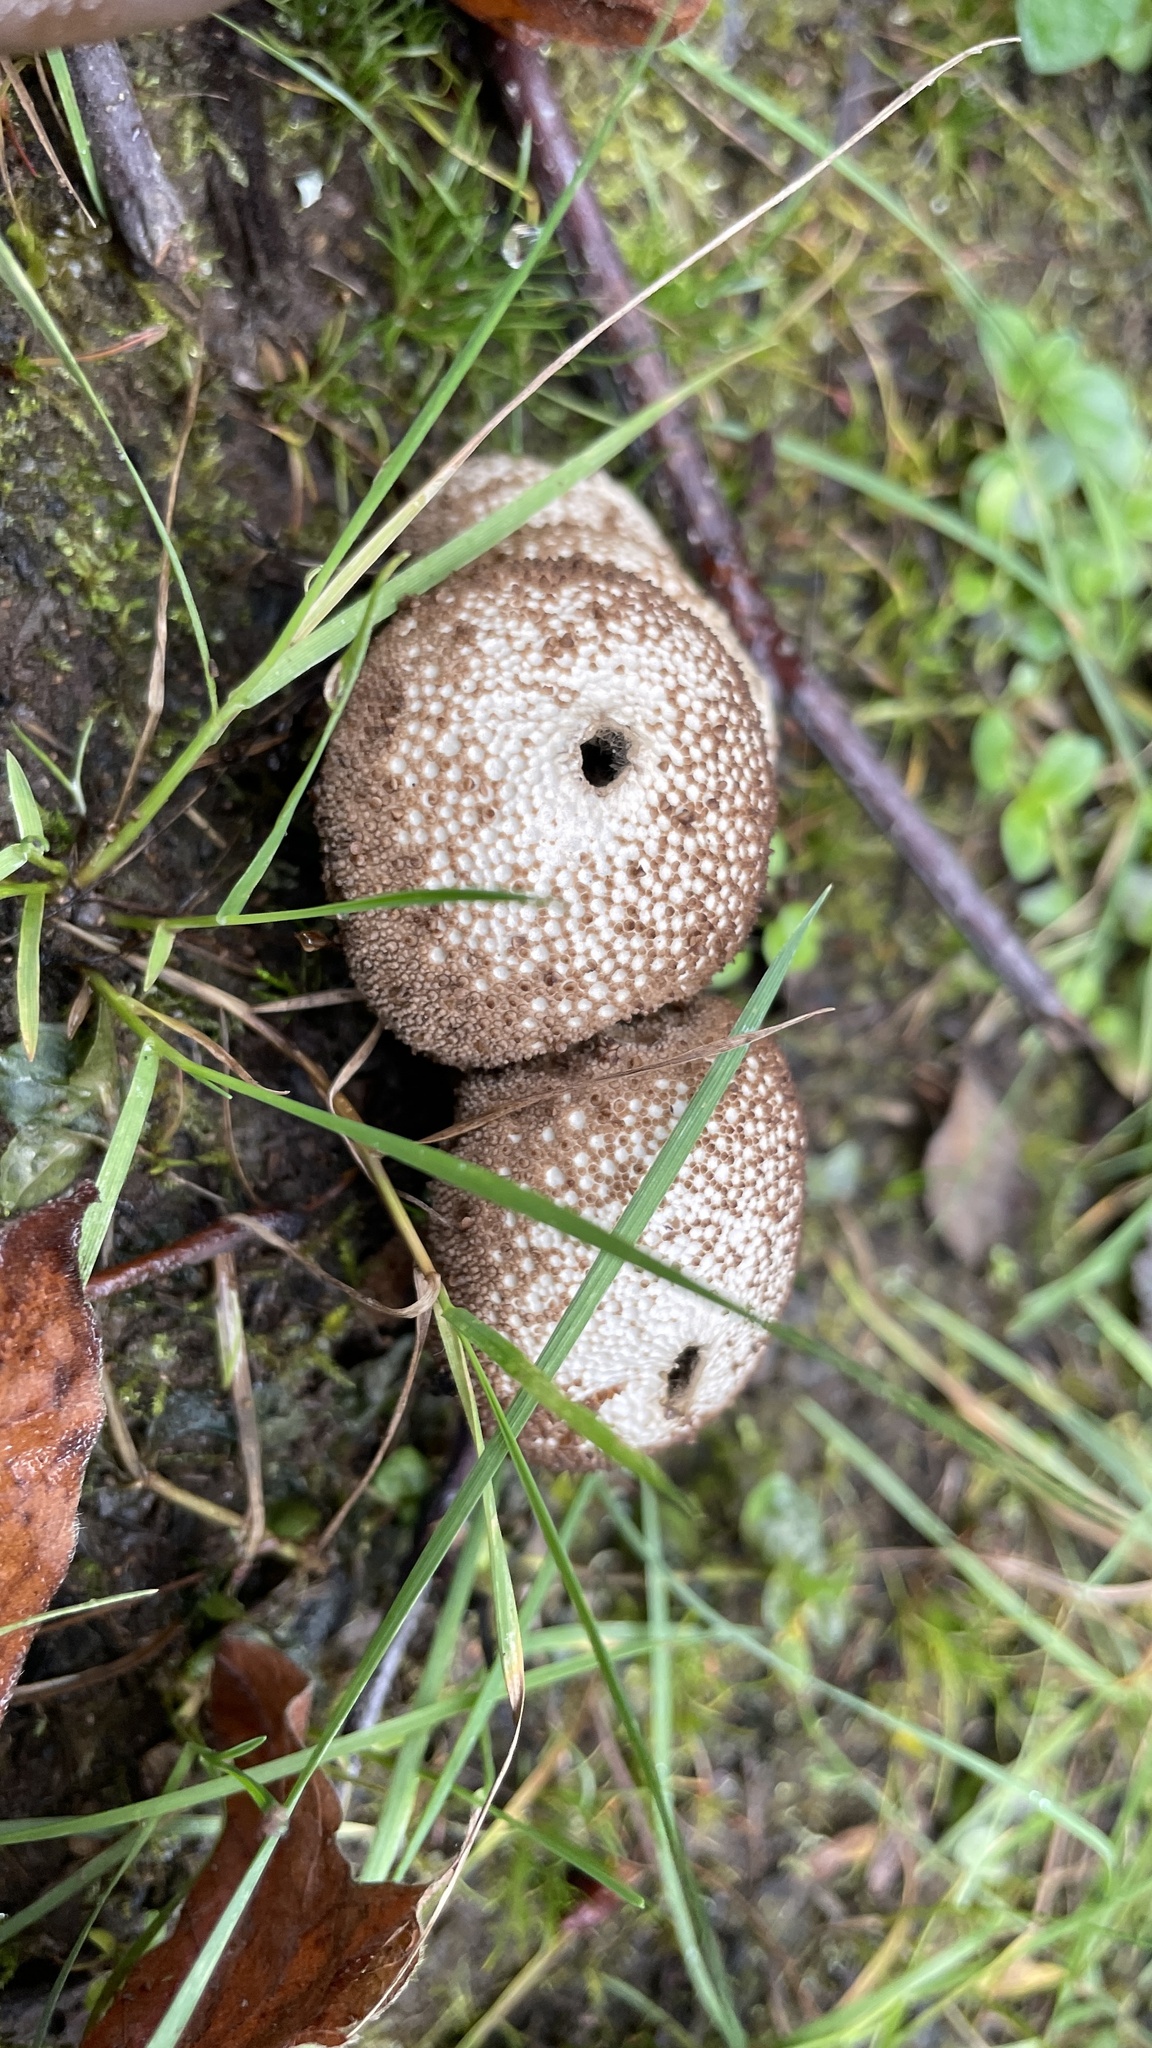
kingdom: Fungi
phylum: Basidiomycota
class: Agaricomycetes
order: Agaricales
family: Lycoperdaceae
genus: Lycoperdon
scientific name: Lycoperdon perlatum
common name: Common puffball
